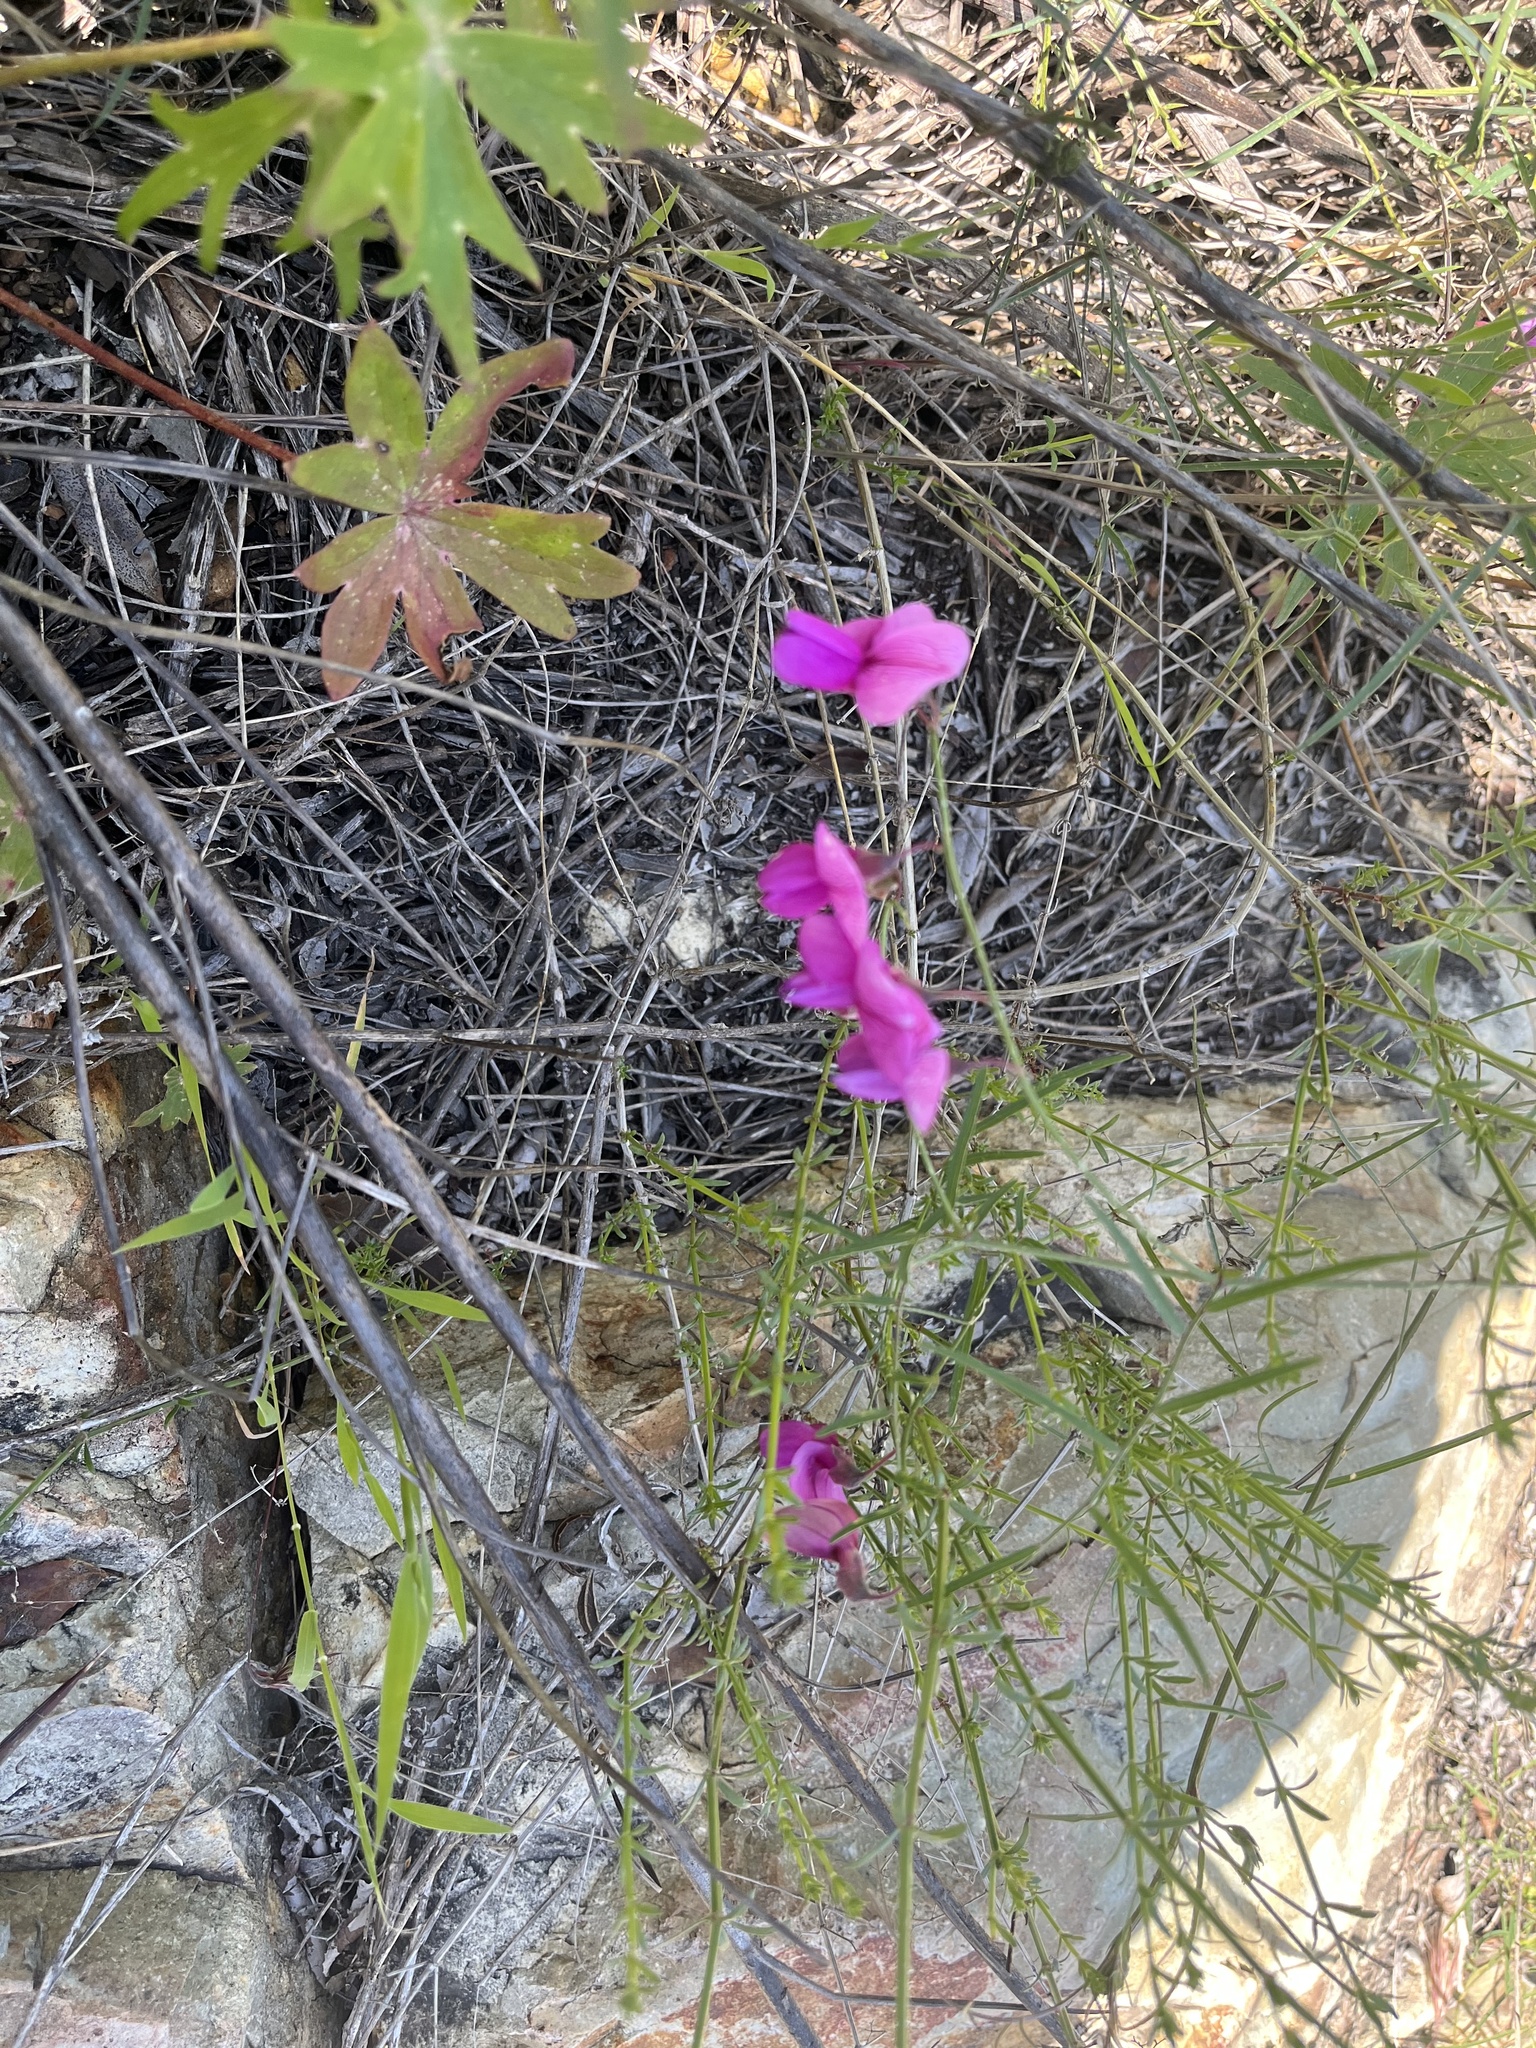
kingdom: Plantae
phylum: Tracheophyta
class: Magnoliopsida
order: Fabales
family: Fabaceae
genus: Lathyrus
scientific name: Lathyrus vestitus
